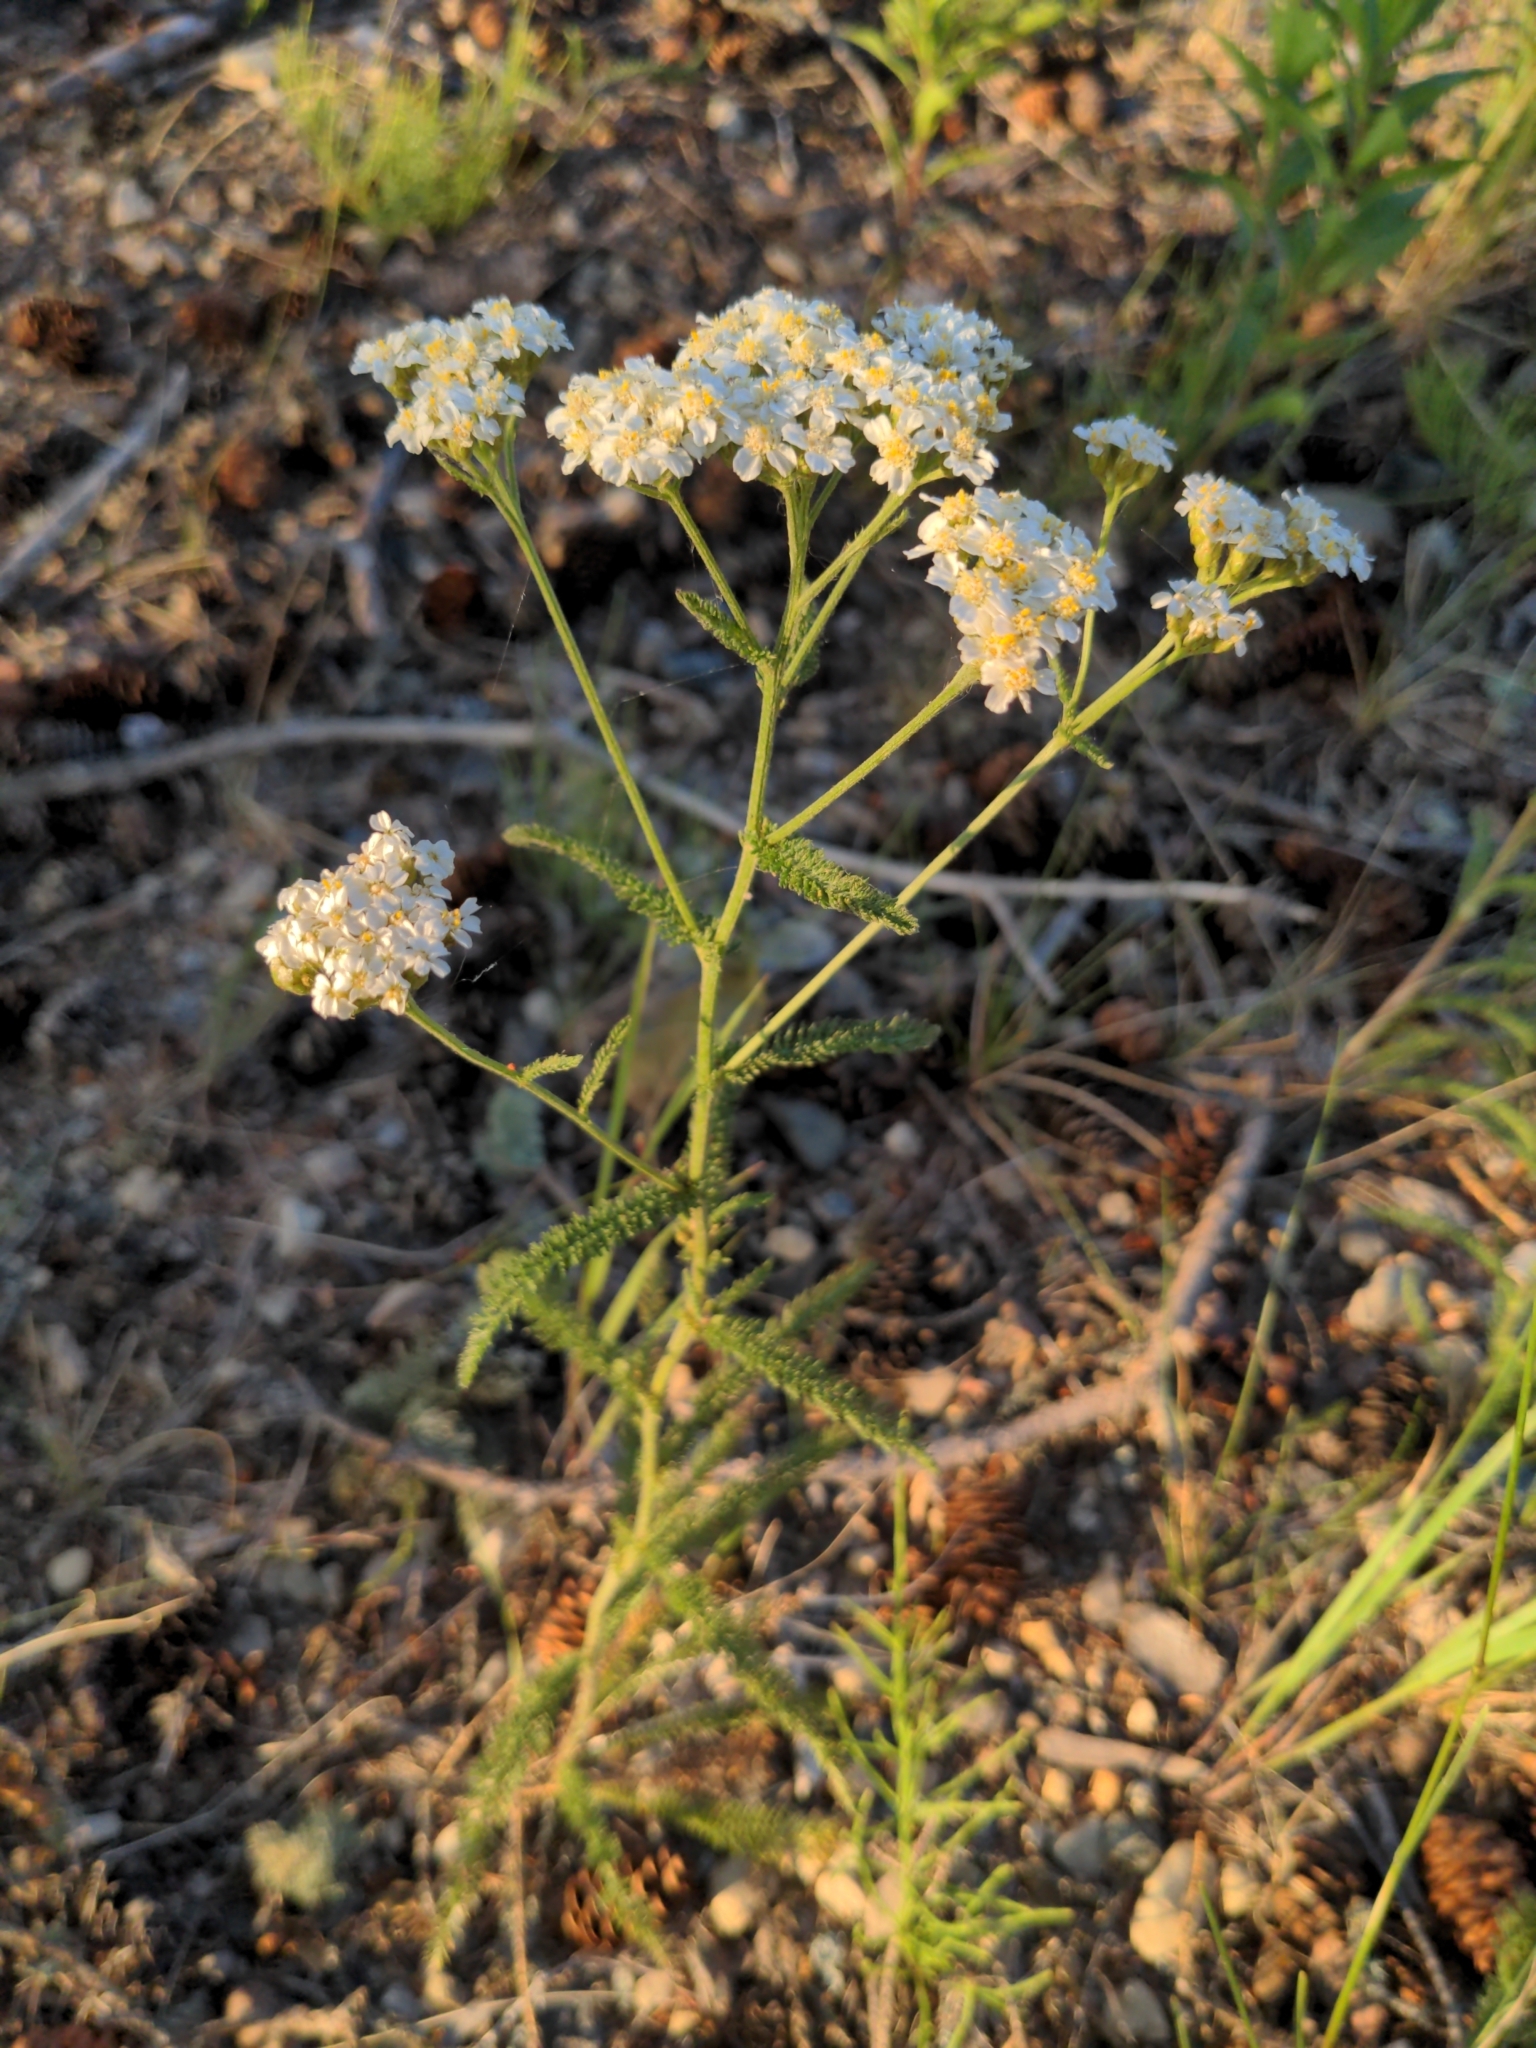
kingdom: Plantae
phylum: Tracheophyta
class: Magnoliopsida
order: Asterales
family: Asteraceae
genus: Achillea
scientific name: Achillea millefolium
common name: Yarrow
